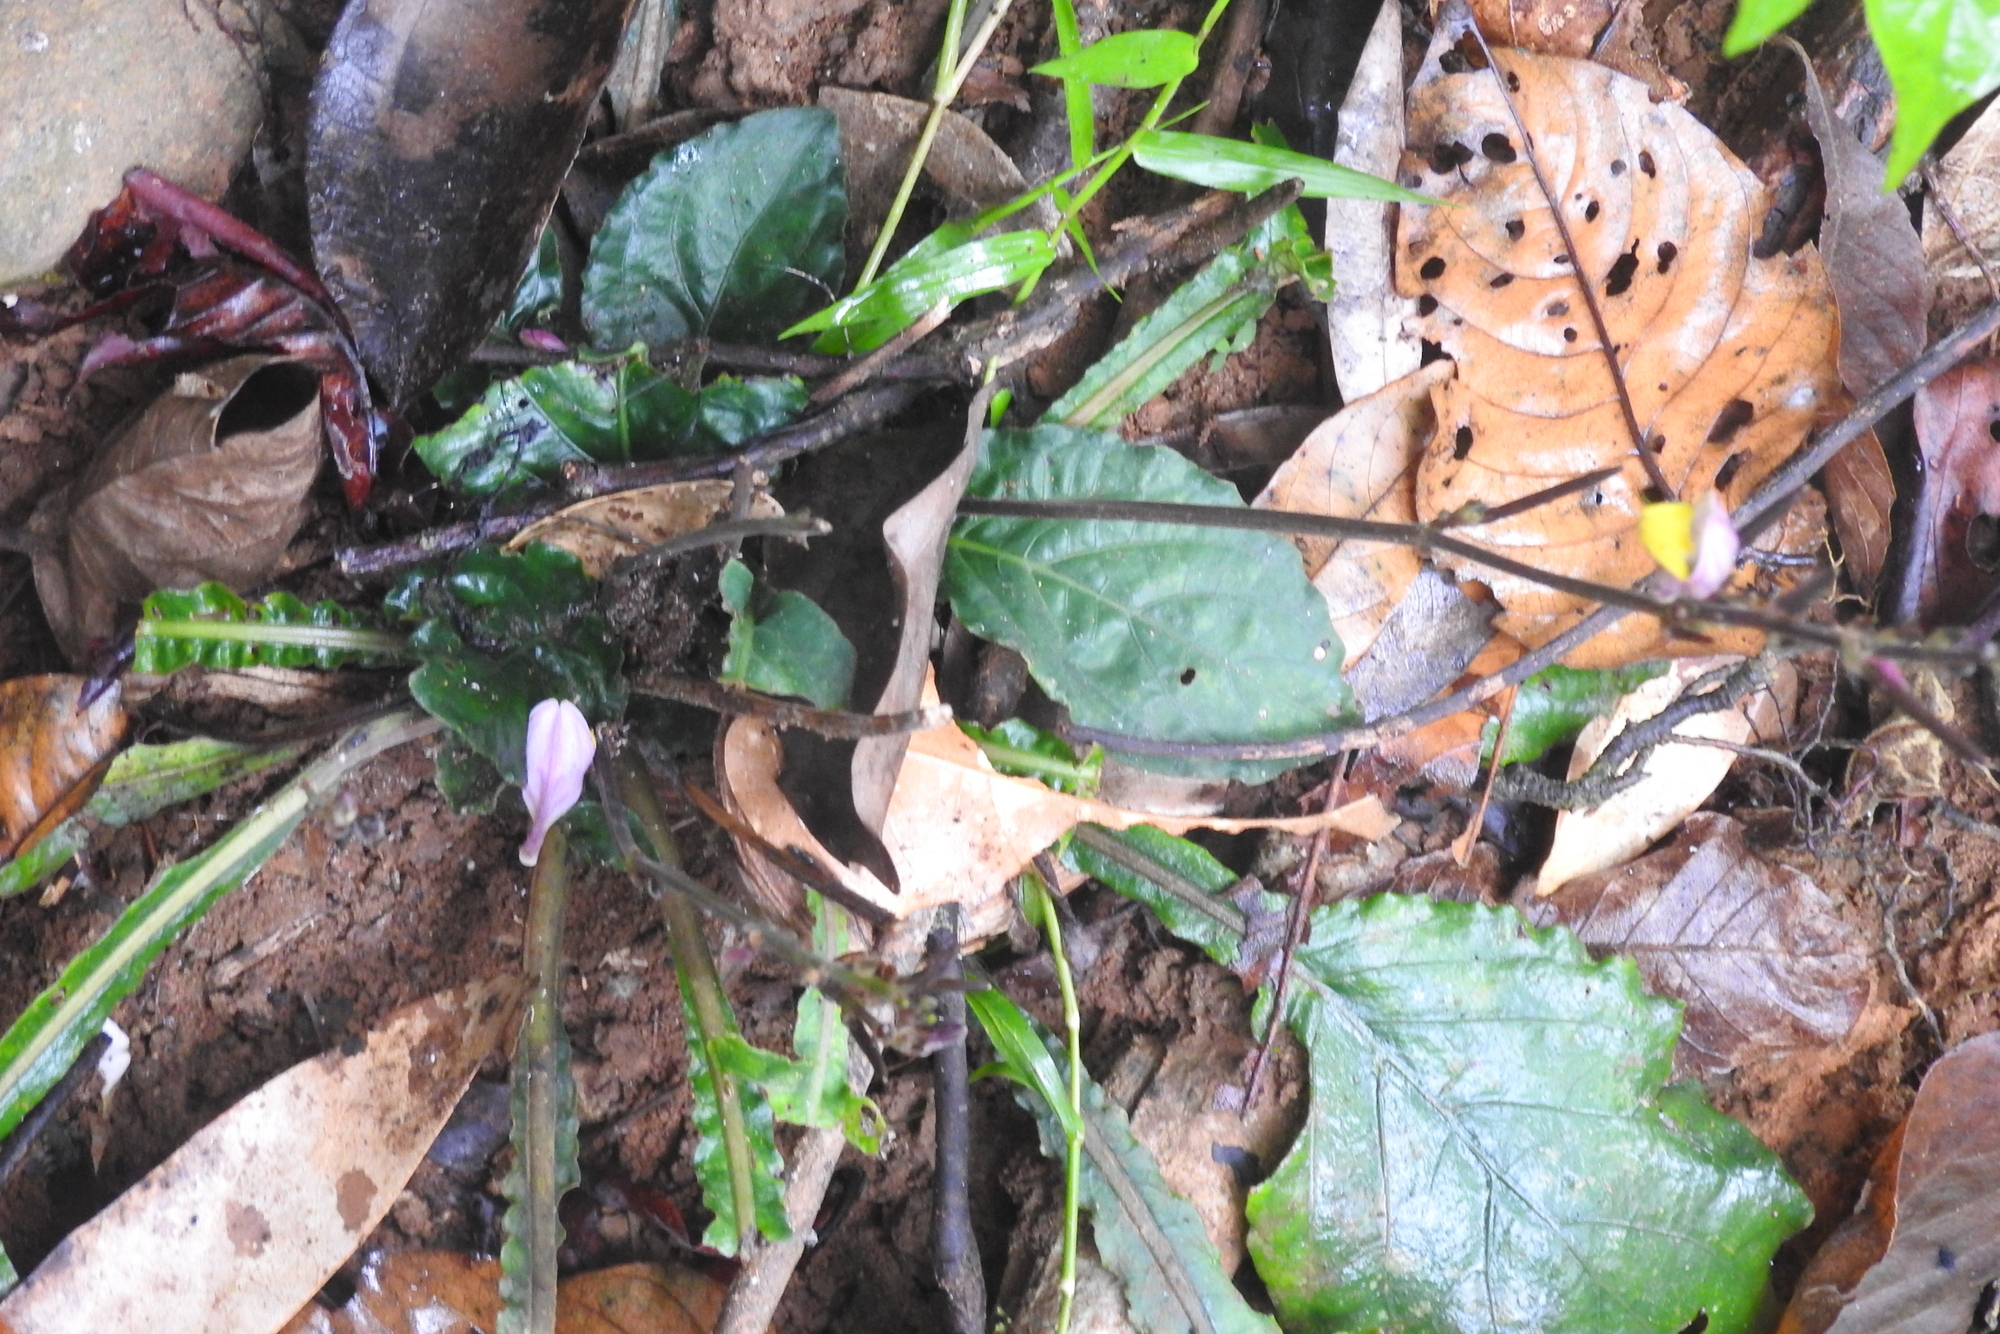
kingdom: Plantae
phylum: Tracheophyta
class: Magnoliopsida
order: Lamiales
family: Acanthaceae
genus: Gymnostachyum
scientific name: Gymnostachyum febrifugum
